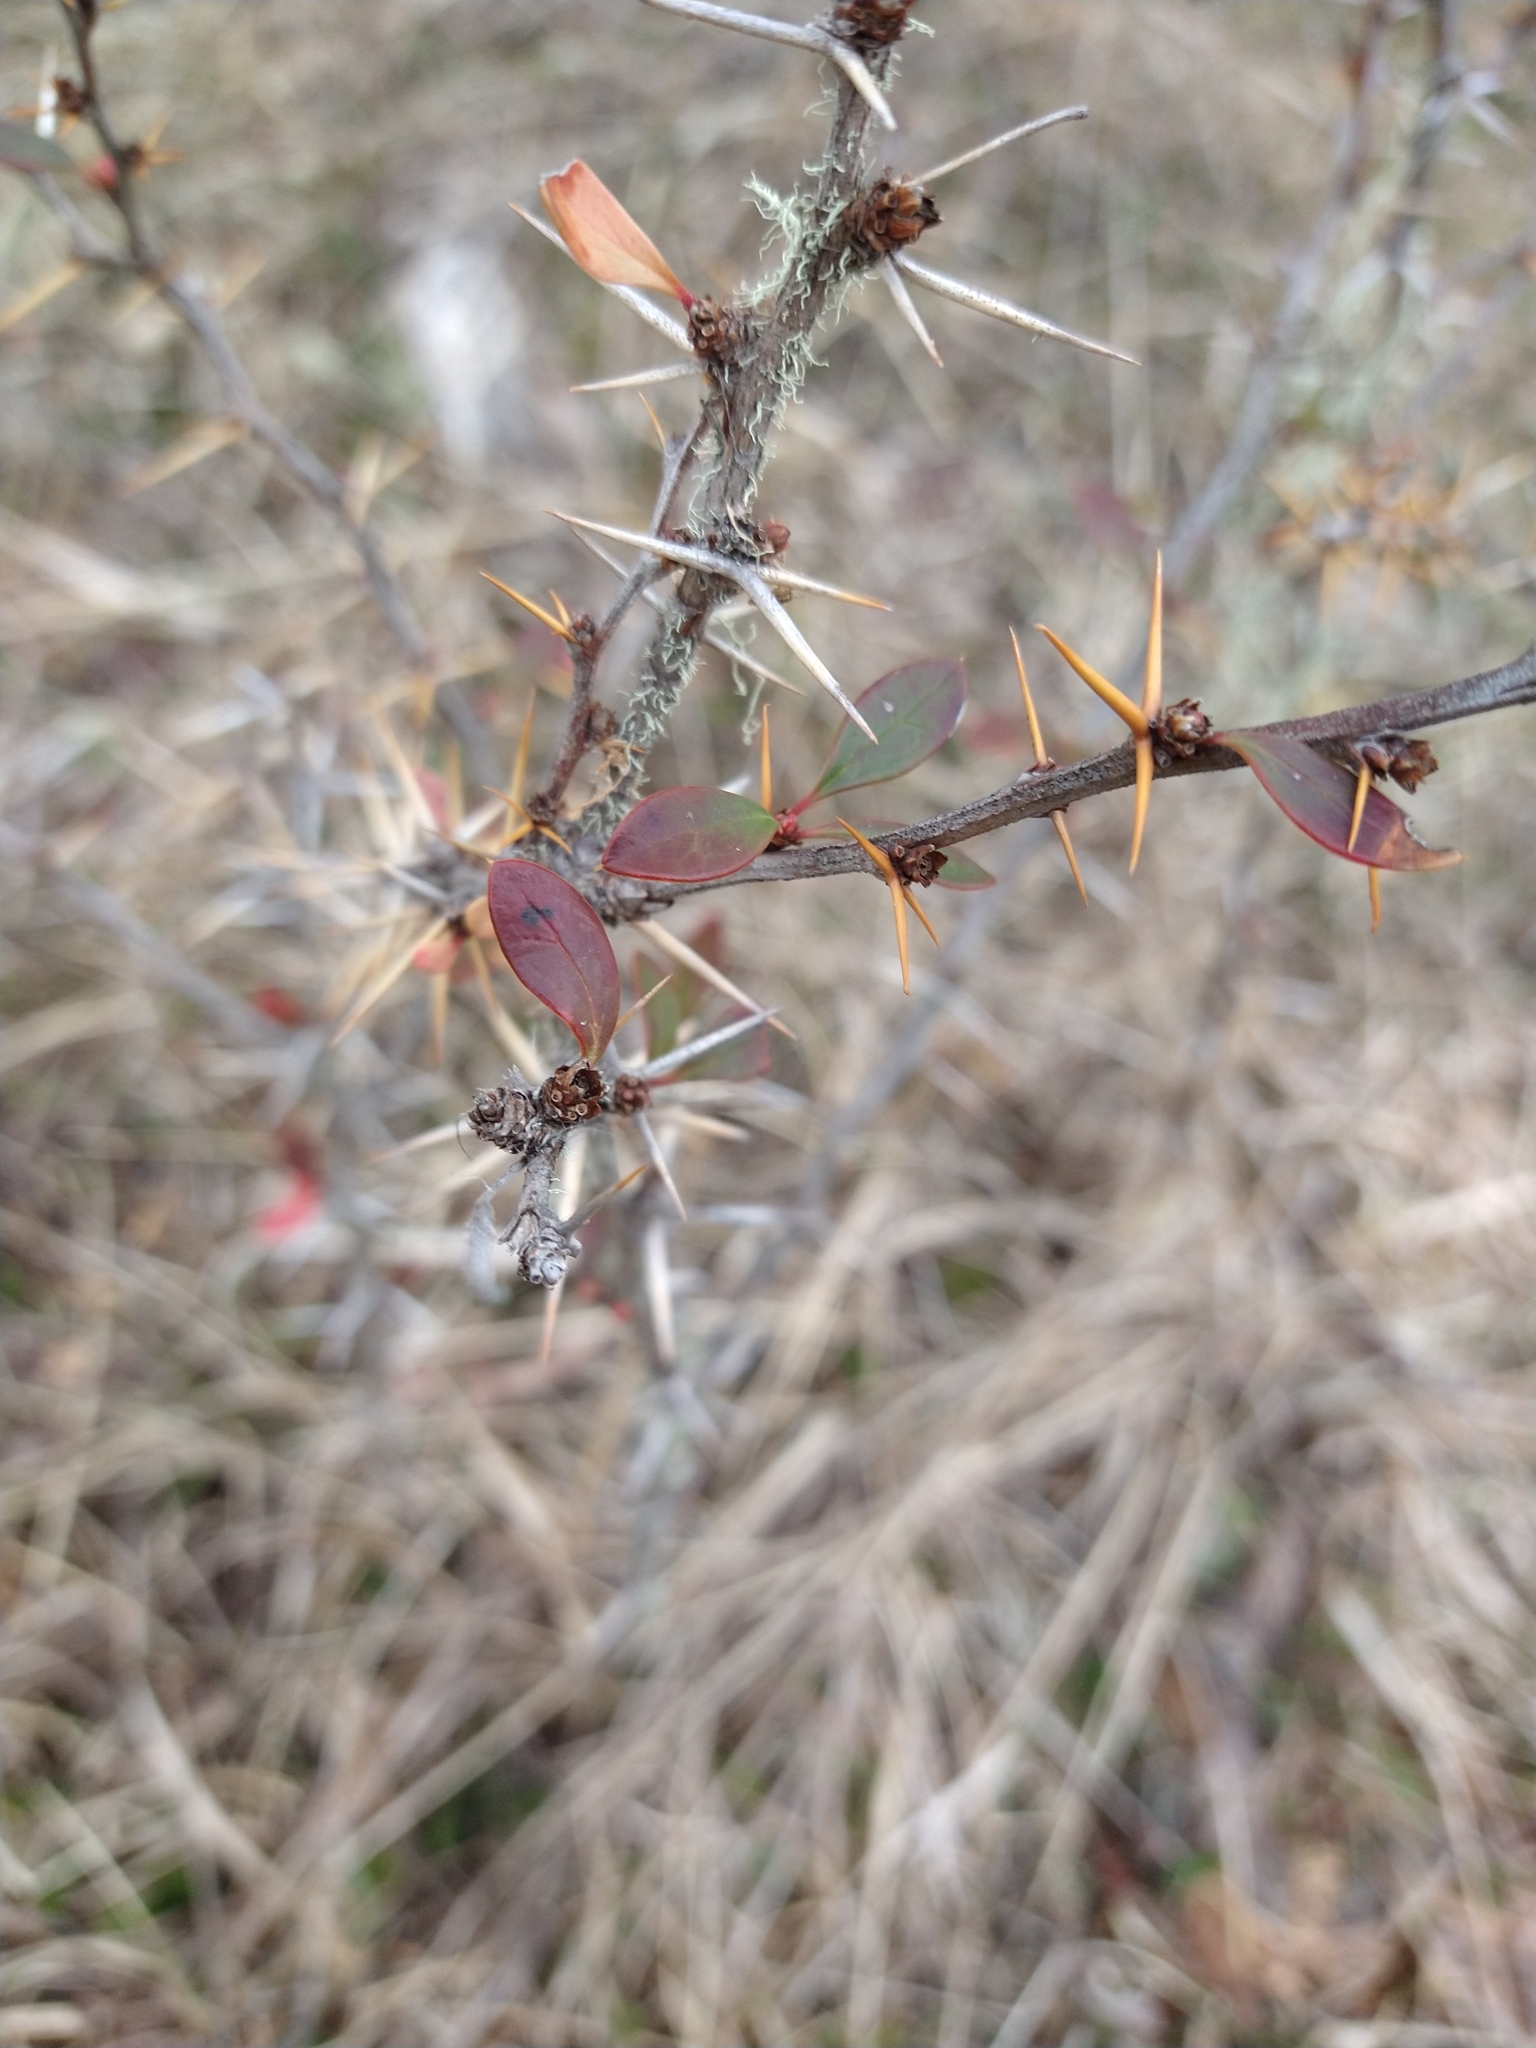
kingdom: Plantae
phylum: Tracheophyta
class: Magnoliopsida
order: Ranunculales
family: Berberidaceae
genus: Berberis
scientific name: Berberis microphylla
